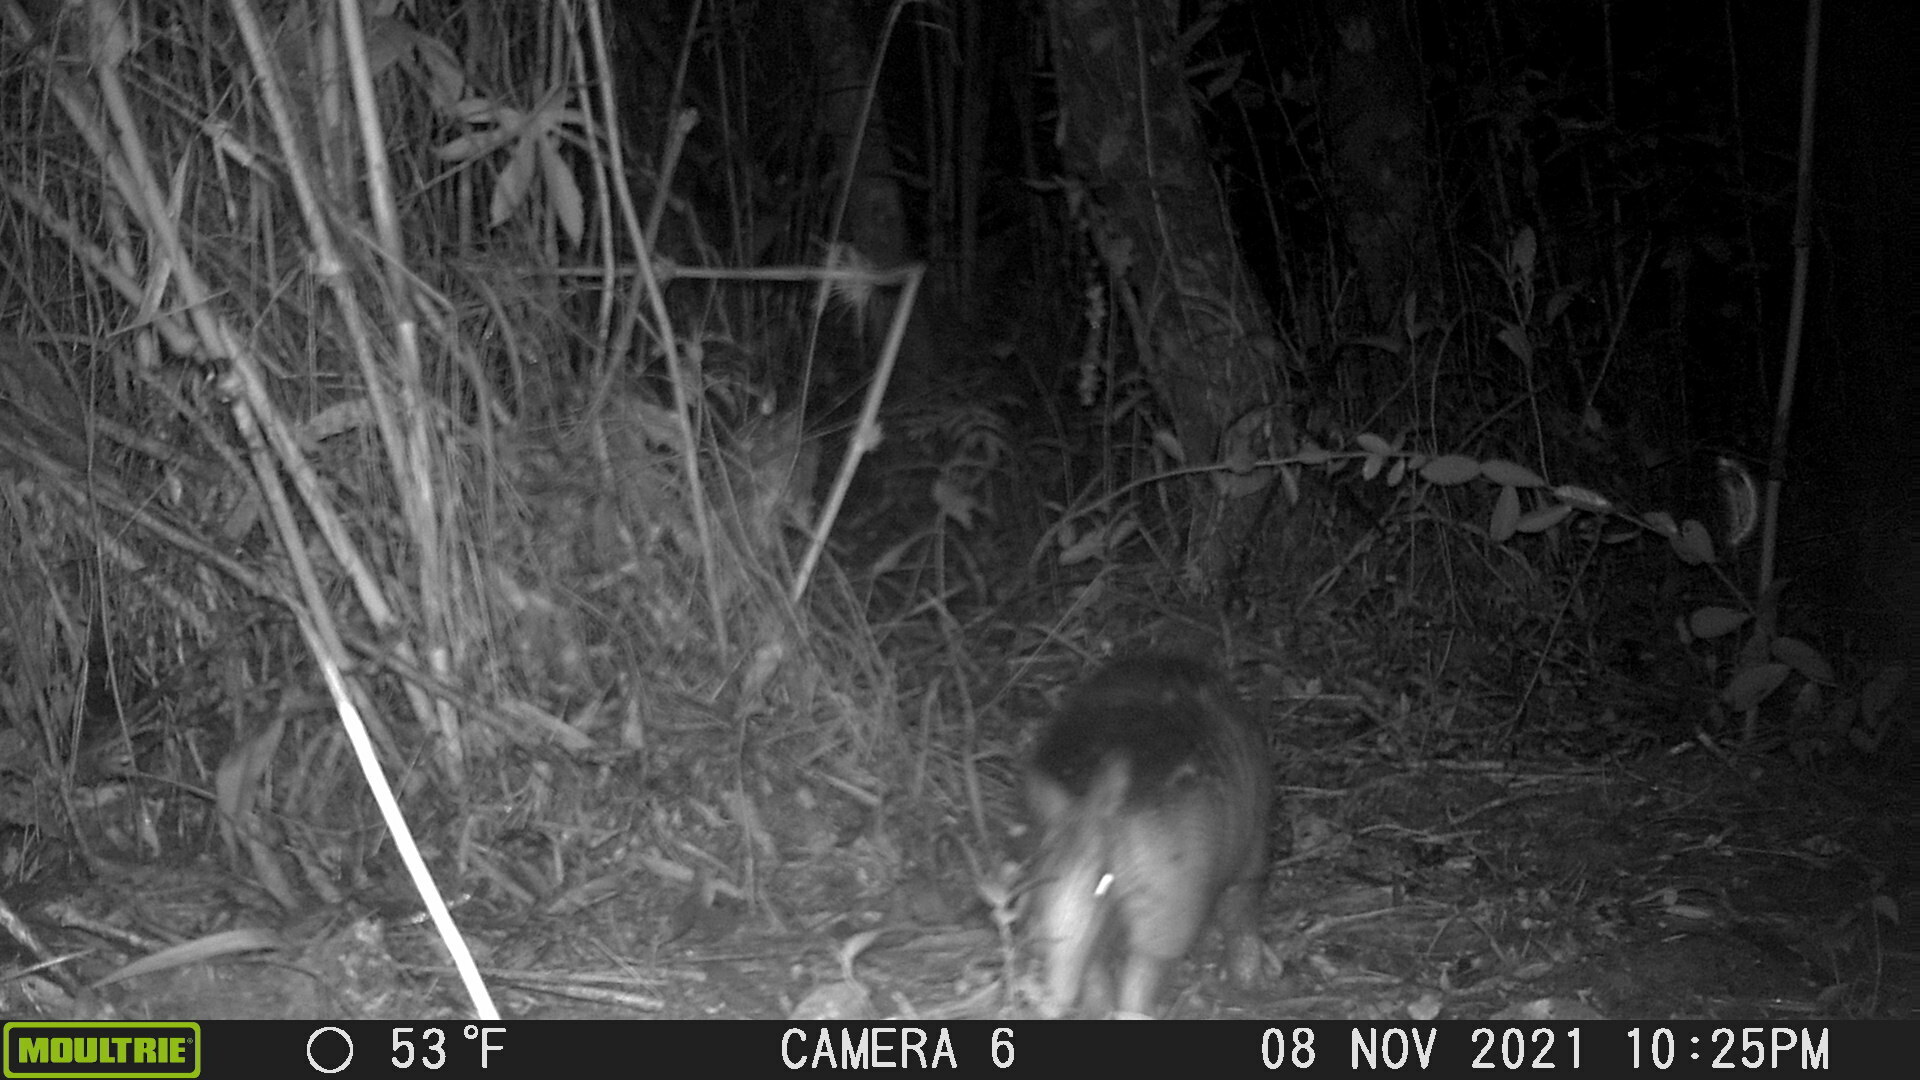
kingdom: Animalia
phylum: Chordata
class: Mammalia
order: Cingulata
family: Dasypodidae
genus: Dasypus
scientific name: Dasypus novemcinctus
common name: Nine-banded armadillo
